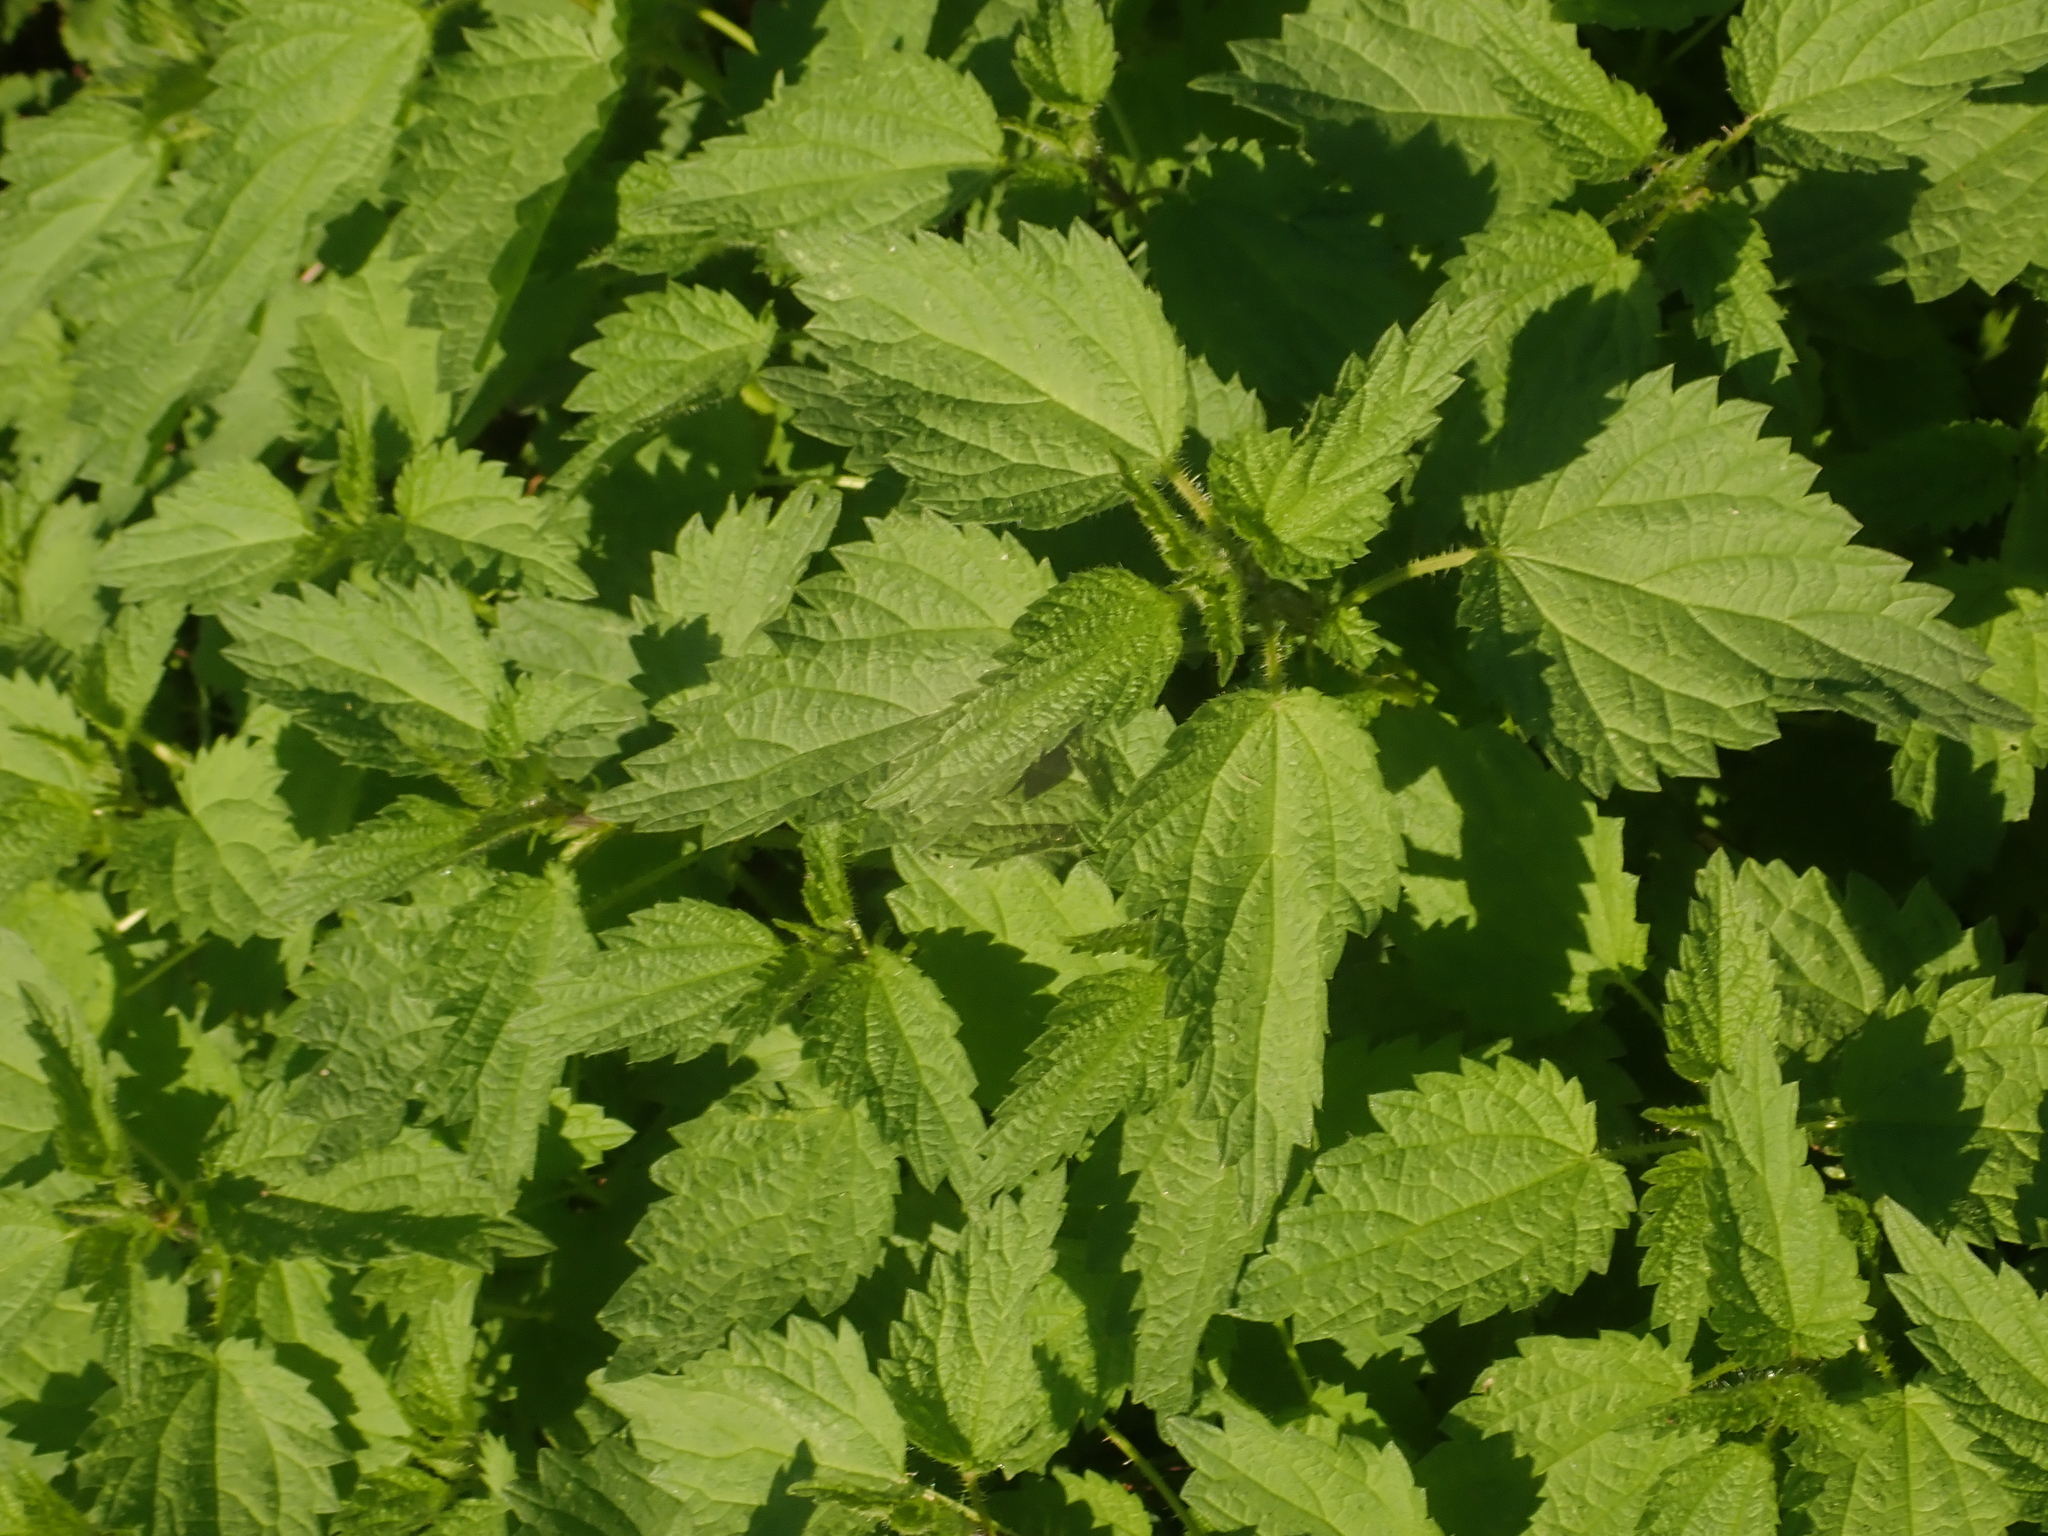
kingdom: Plantae
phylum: Tracheophyta
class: Magnoliopsida
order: Rosales
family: Urticaceae
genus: Urtica
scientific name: Urtica dioica
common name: Common nettle
